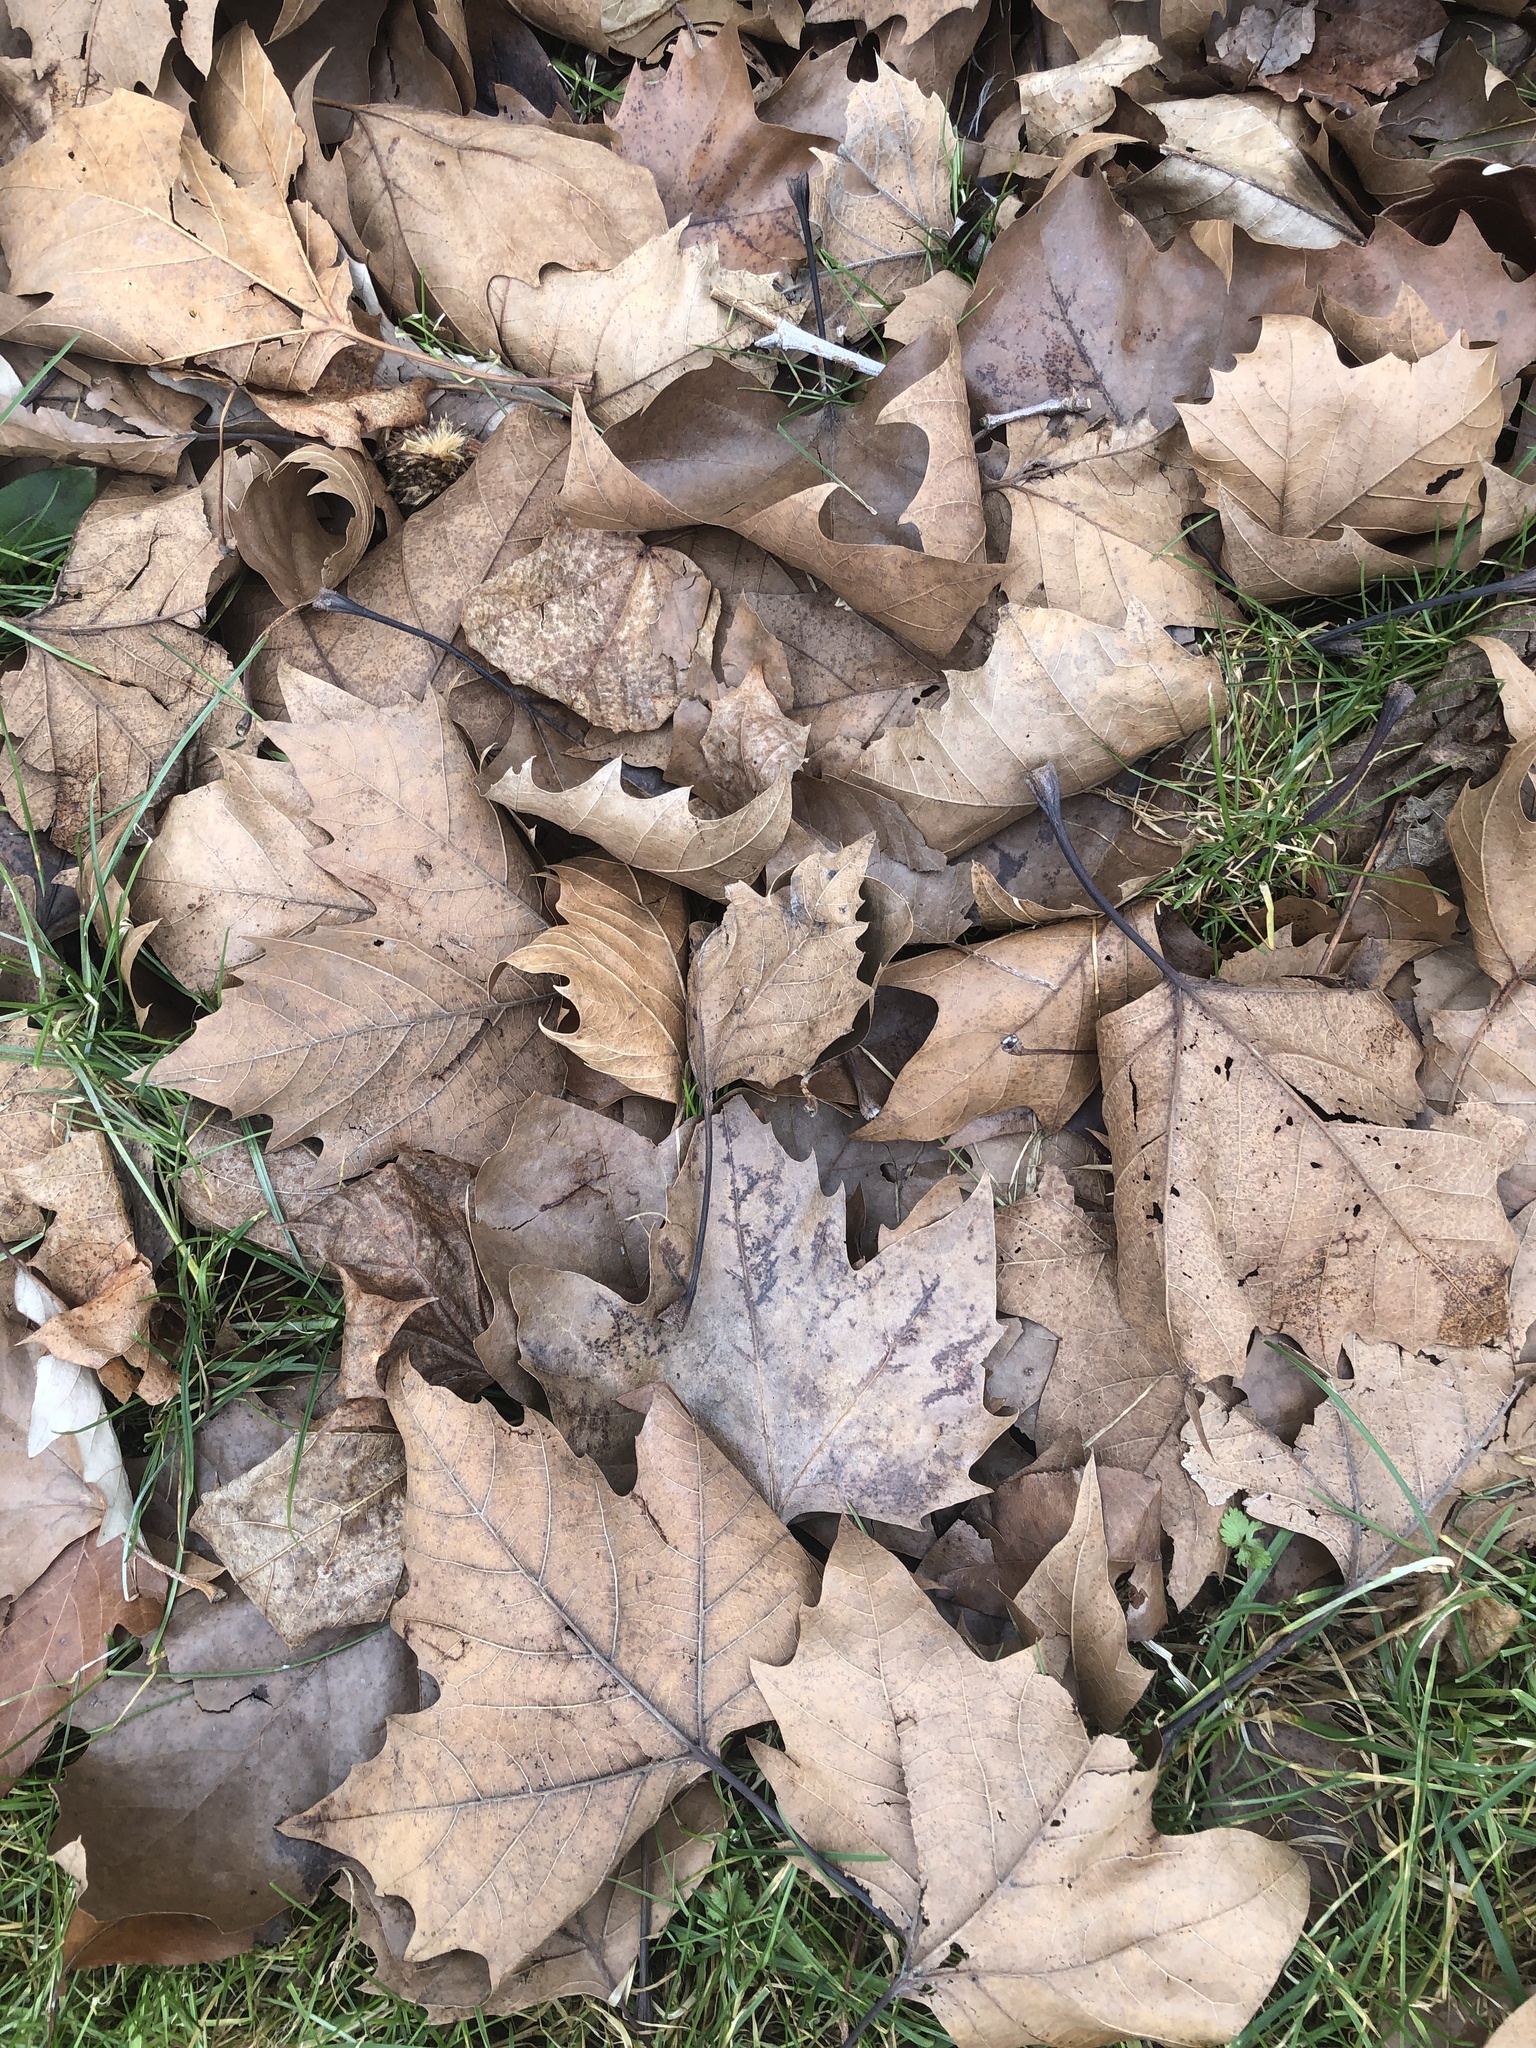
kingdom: Plantae
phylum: Tracheophyta
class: Magnoliopsida
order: Proteales
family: Platanaceae
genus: Platanus
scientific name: Platanus occidentalis
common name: American sycamore
